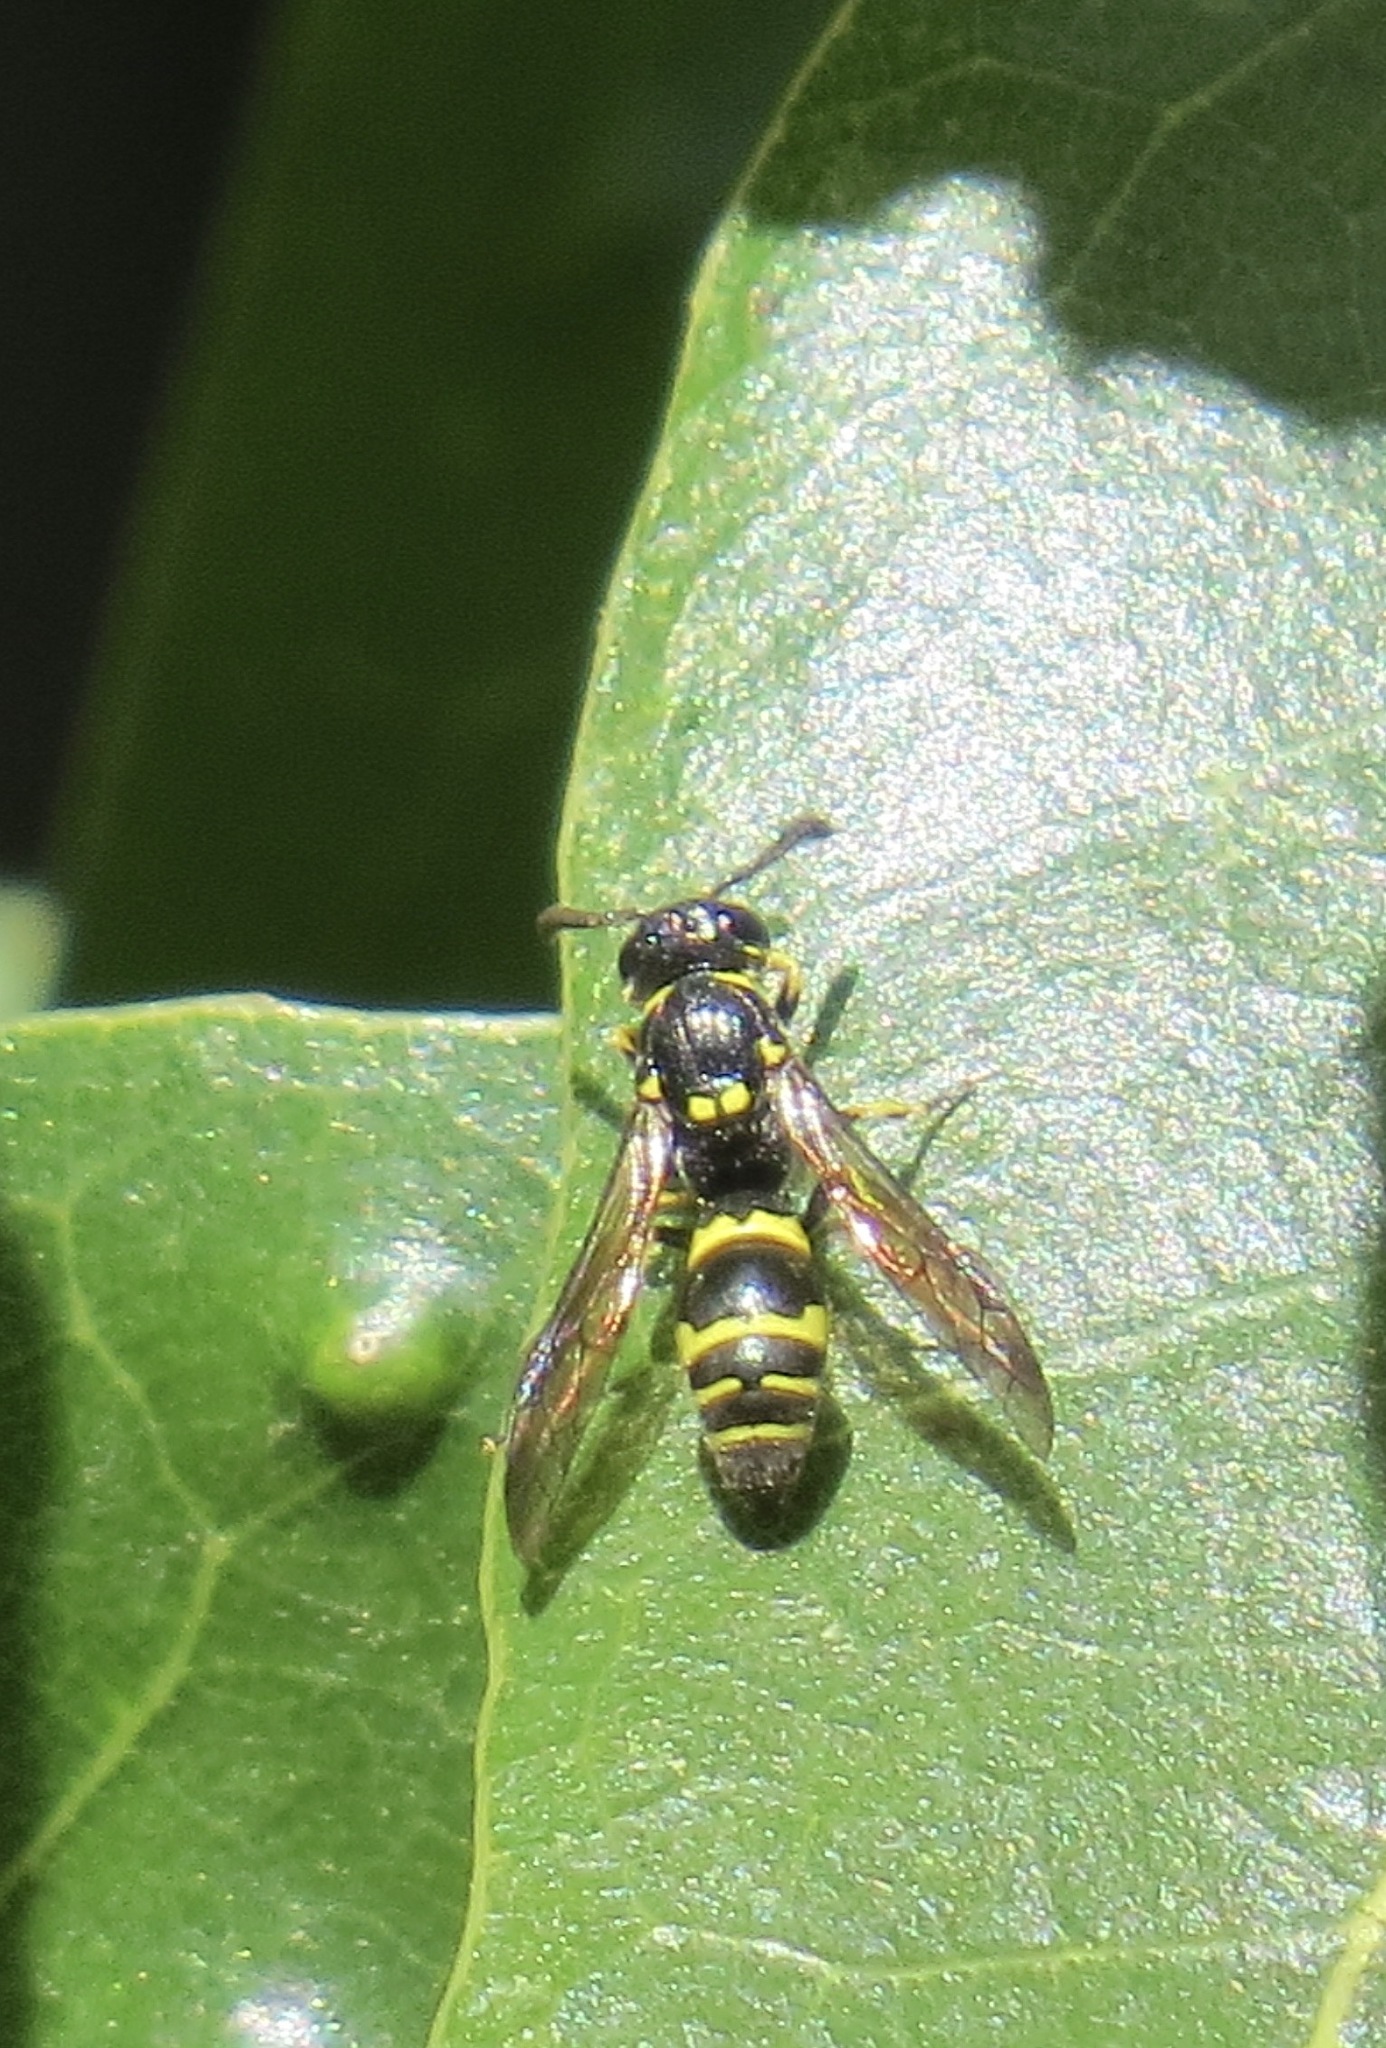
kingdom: Animalia
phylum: Arthropoda
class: Insecta
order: Hymenoptera
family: Eumenidae
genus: Symmorphus
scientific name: Symmorphus
